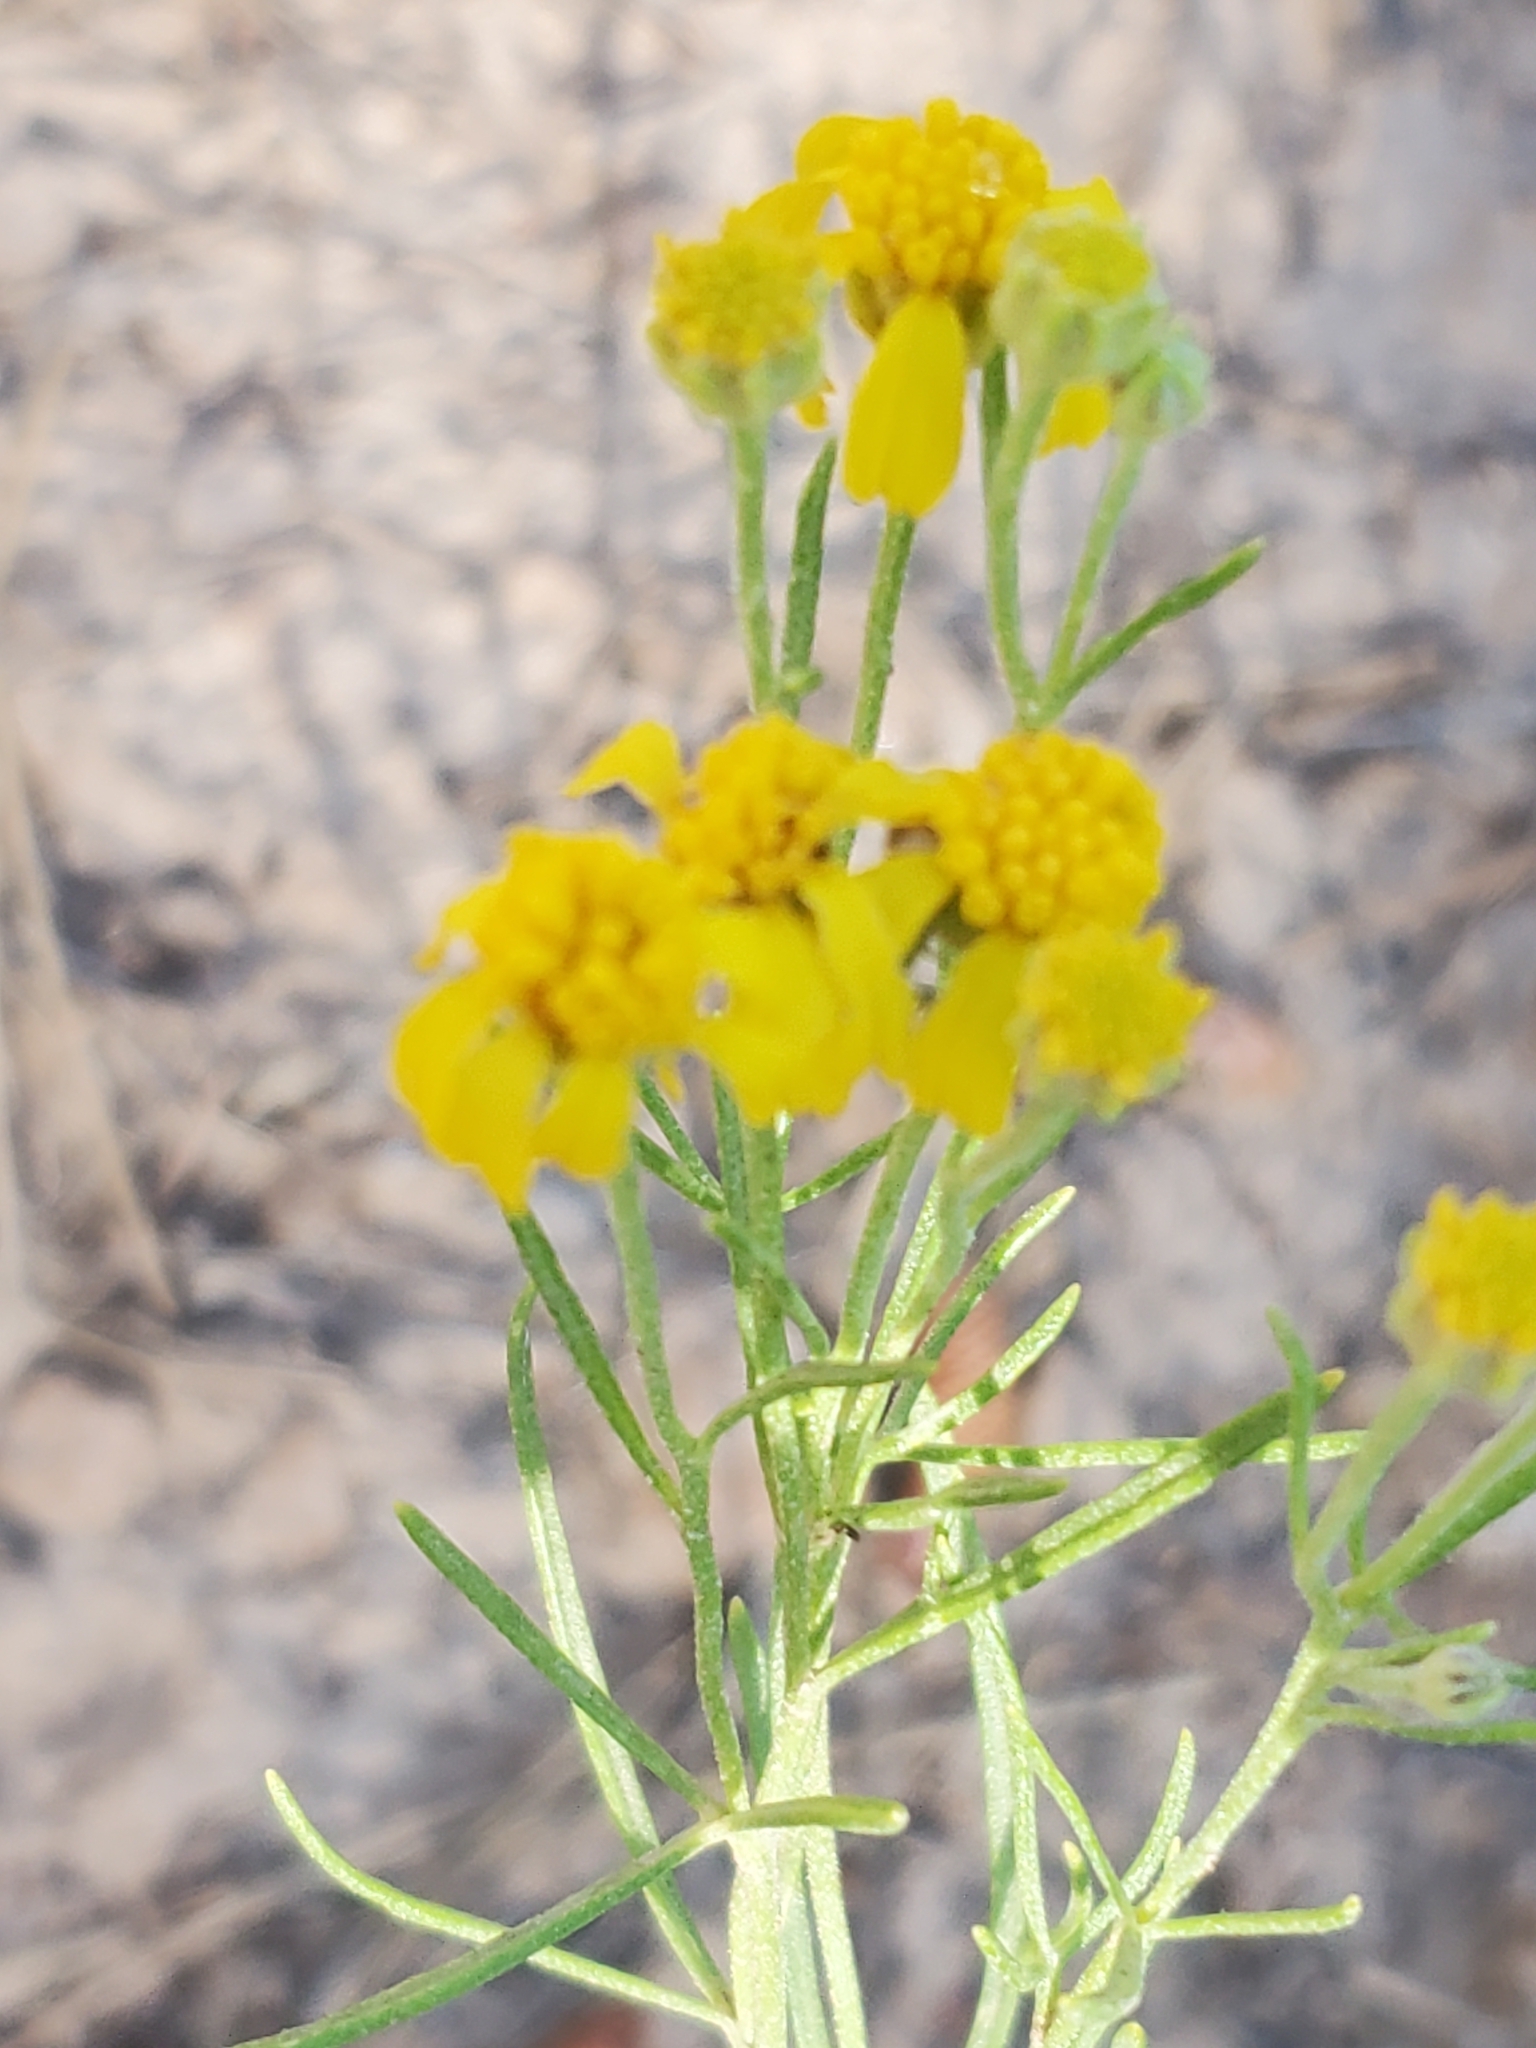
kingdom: Plantae
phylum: Tracheophyta
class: Magnoliopsida
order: Asterales
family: Asteraceae
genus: Hymenoxys
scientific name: Hymenoxys richardsonii
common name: Pingue rubberweed
